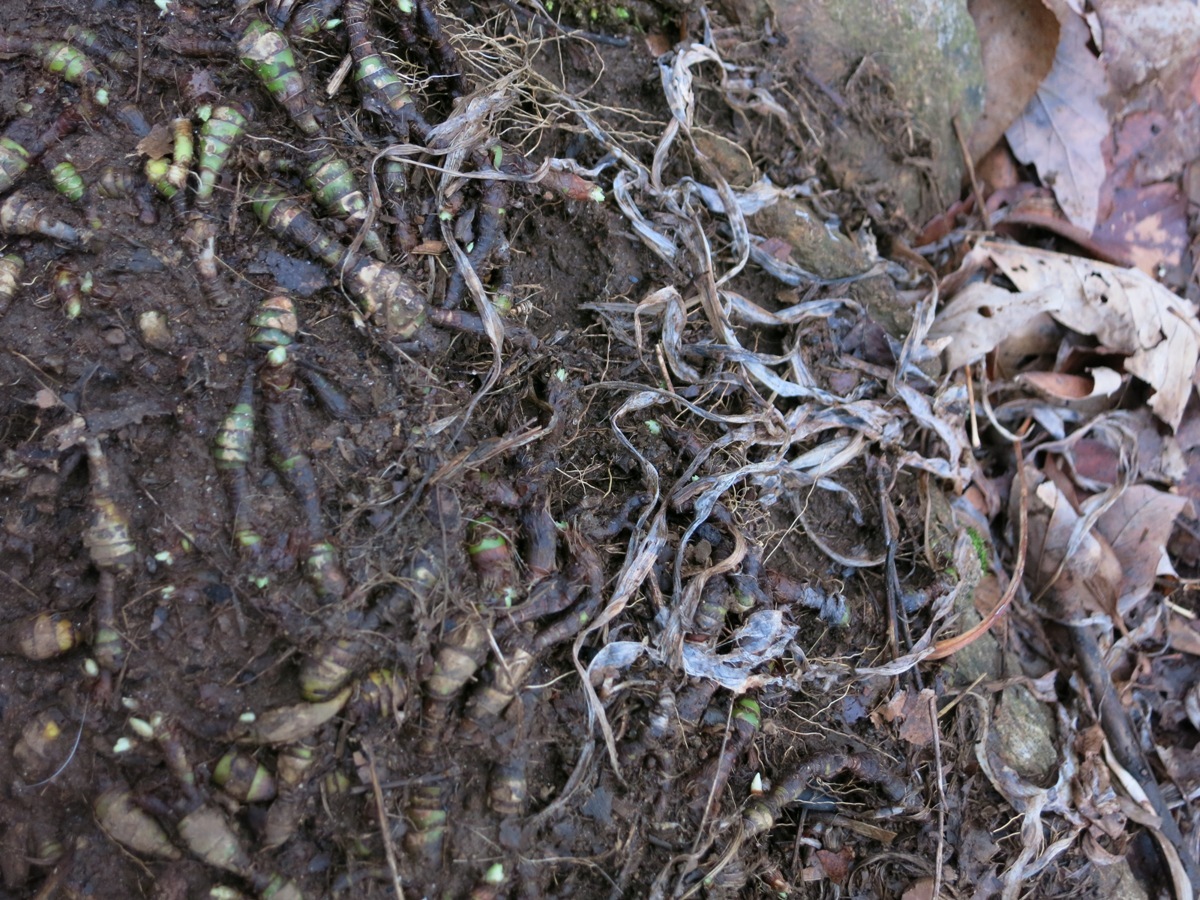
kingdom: Plantae
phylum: Tracheophyta
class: Liliopsida
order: Asparagales
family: Asparagaceae
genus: Polygonatum
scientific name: Polygonatum
